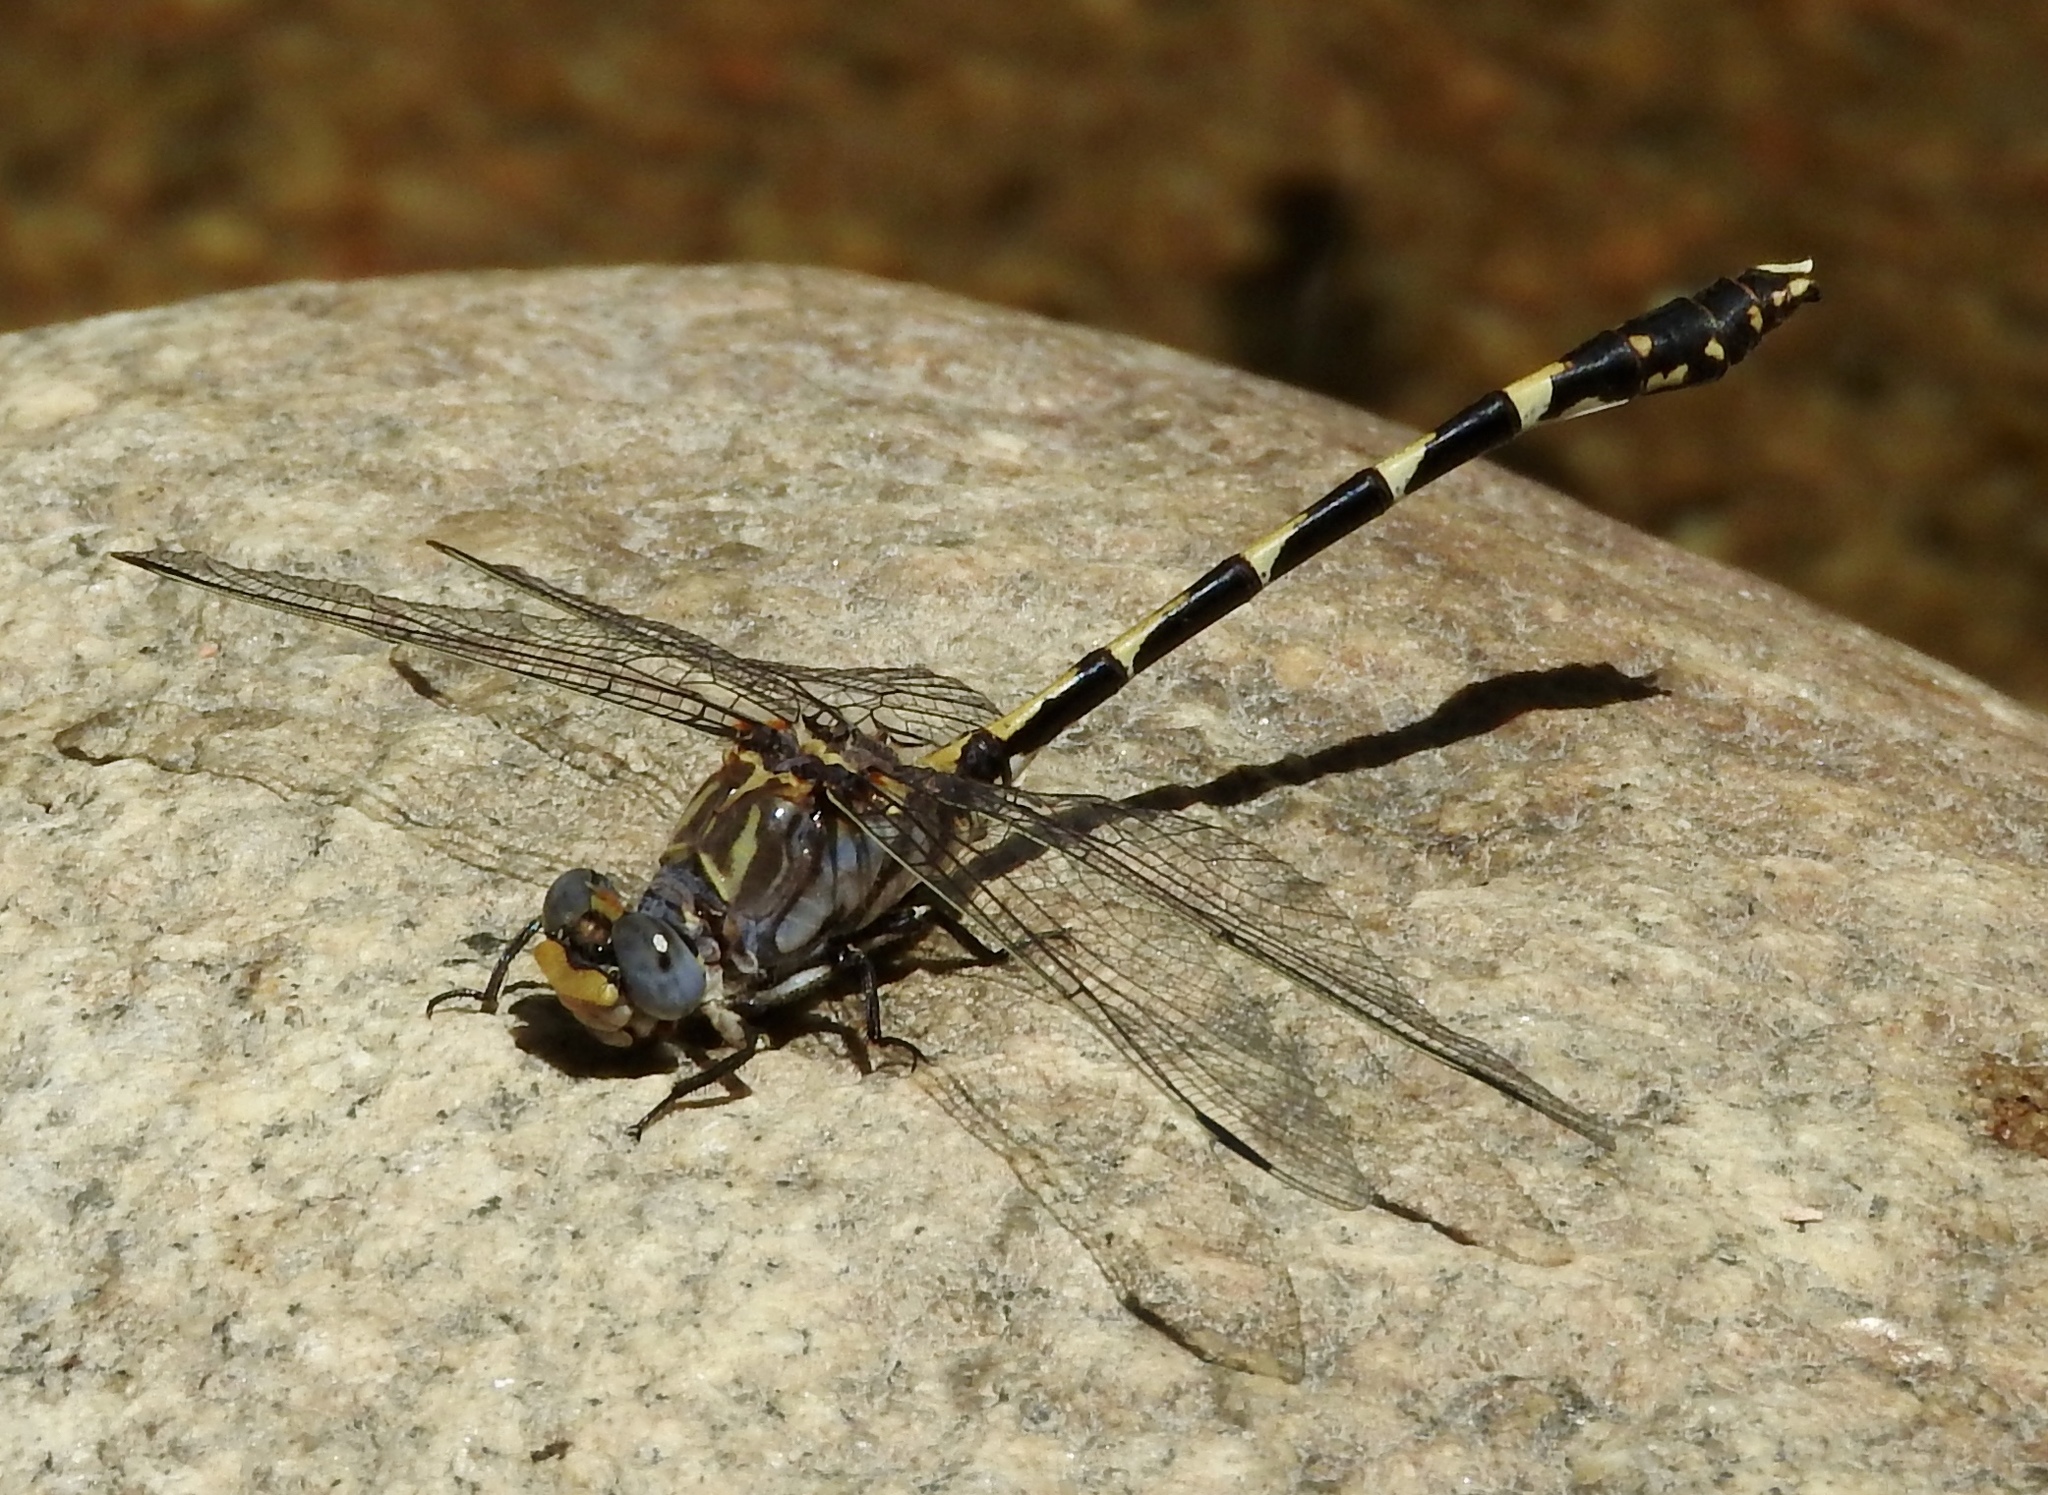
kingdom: Animalia
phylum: Arthropoda
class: Insecta
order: Odonata
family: Gomphidae
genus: Progomphus
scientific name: Progomphus borealis
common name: Gray sanddragon
